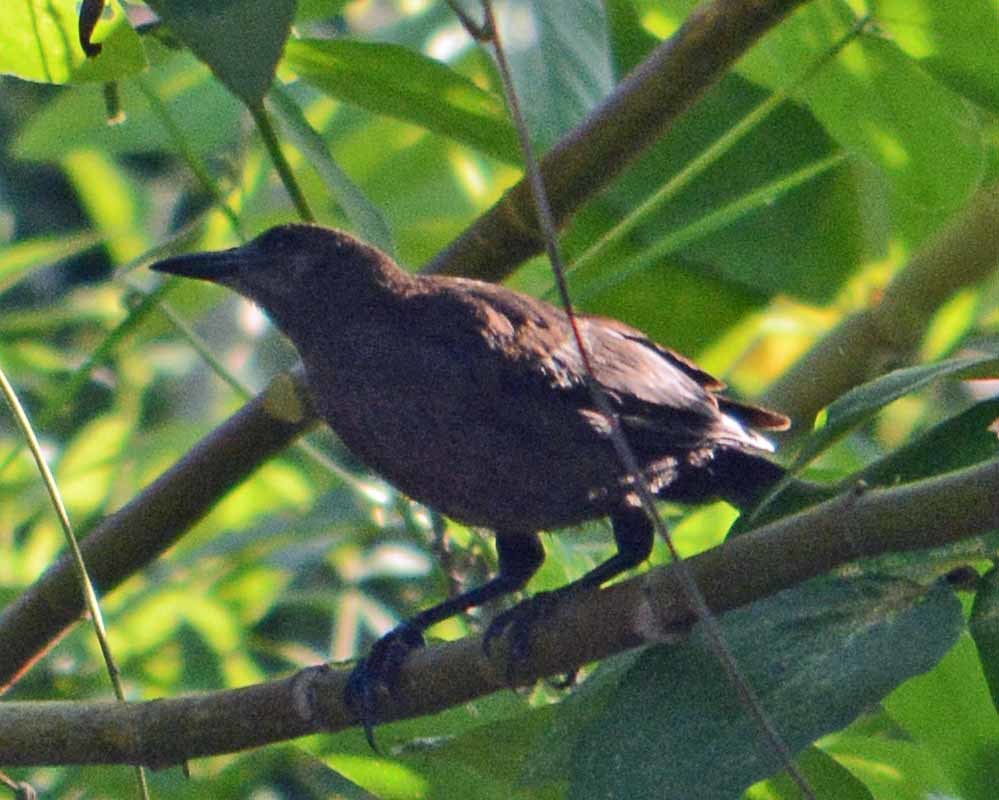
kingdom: Animalia
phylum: Chordata
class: Aves
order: Passeriformes
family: Icteridae
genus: Quiscalus
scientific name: Quiscalus mexicanus
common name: Great-tailed grackle
